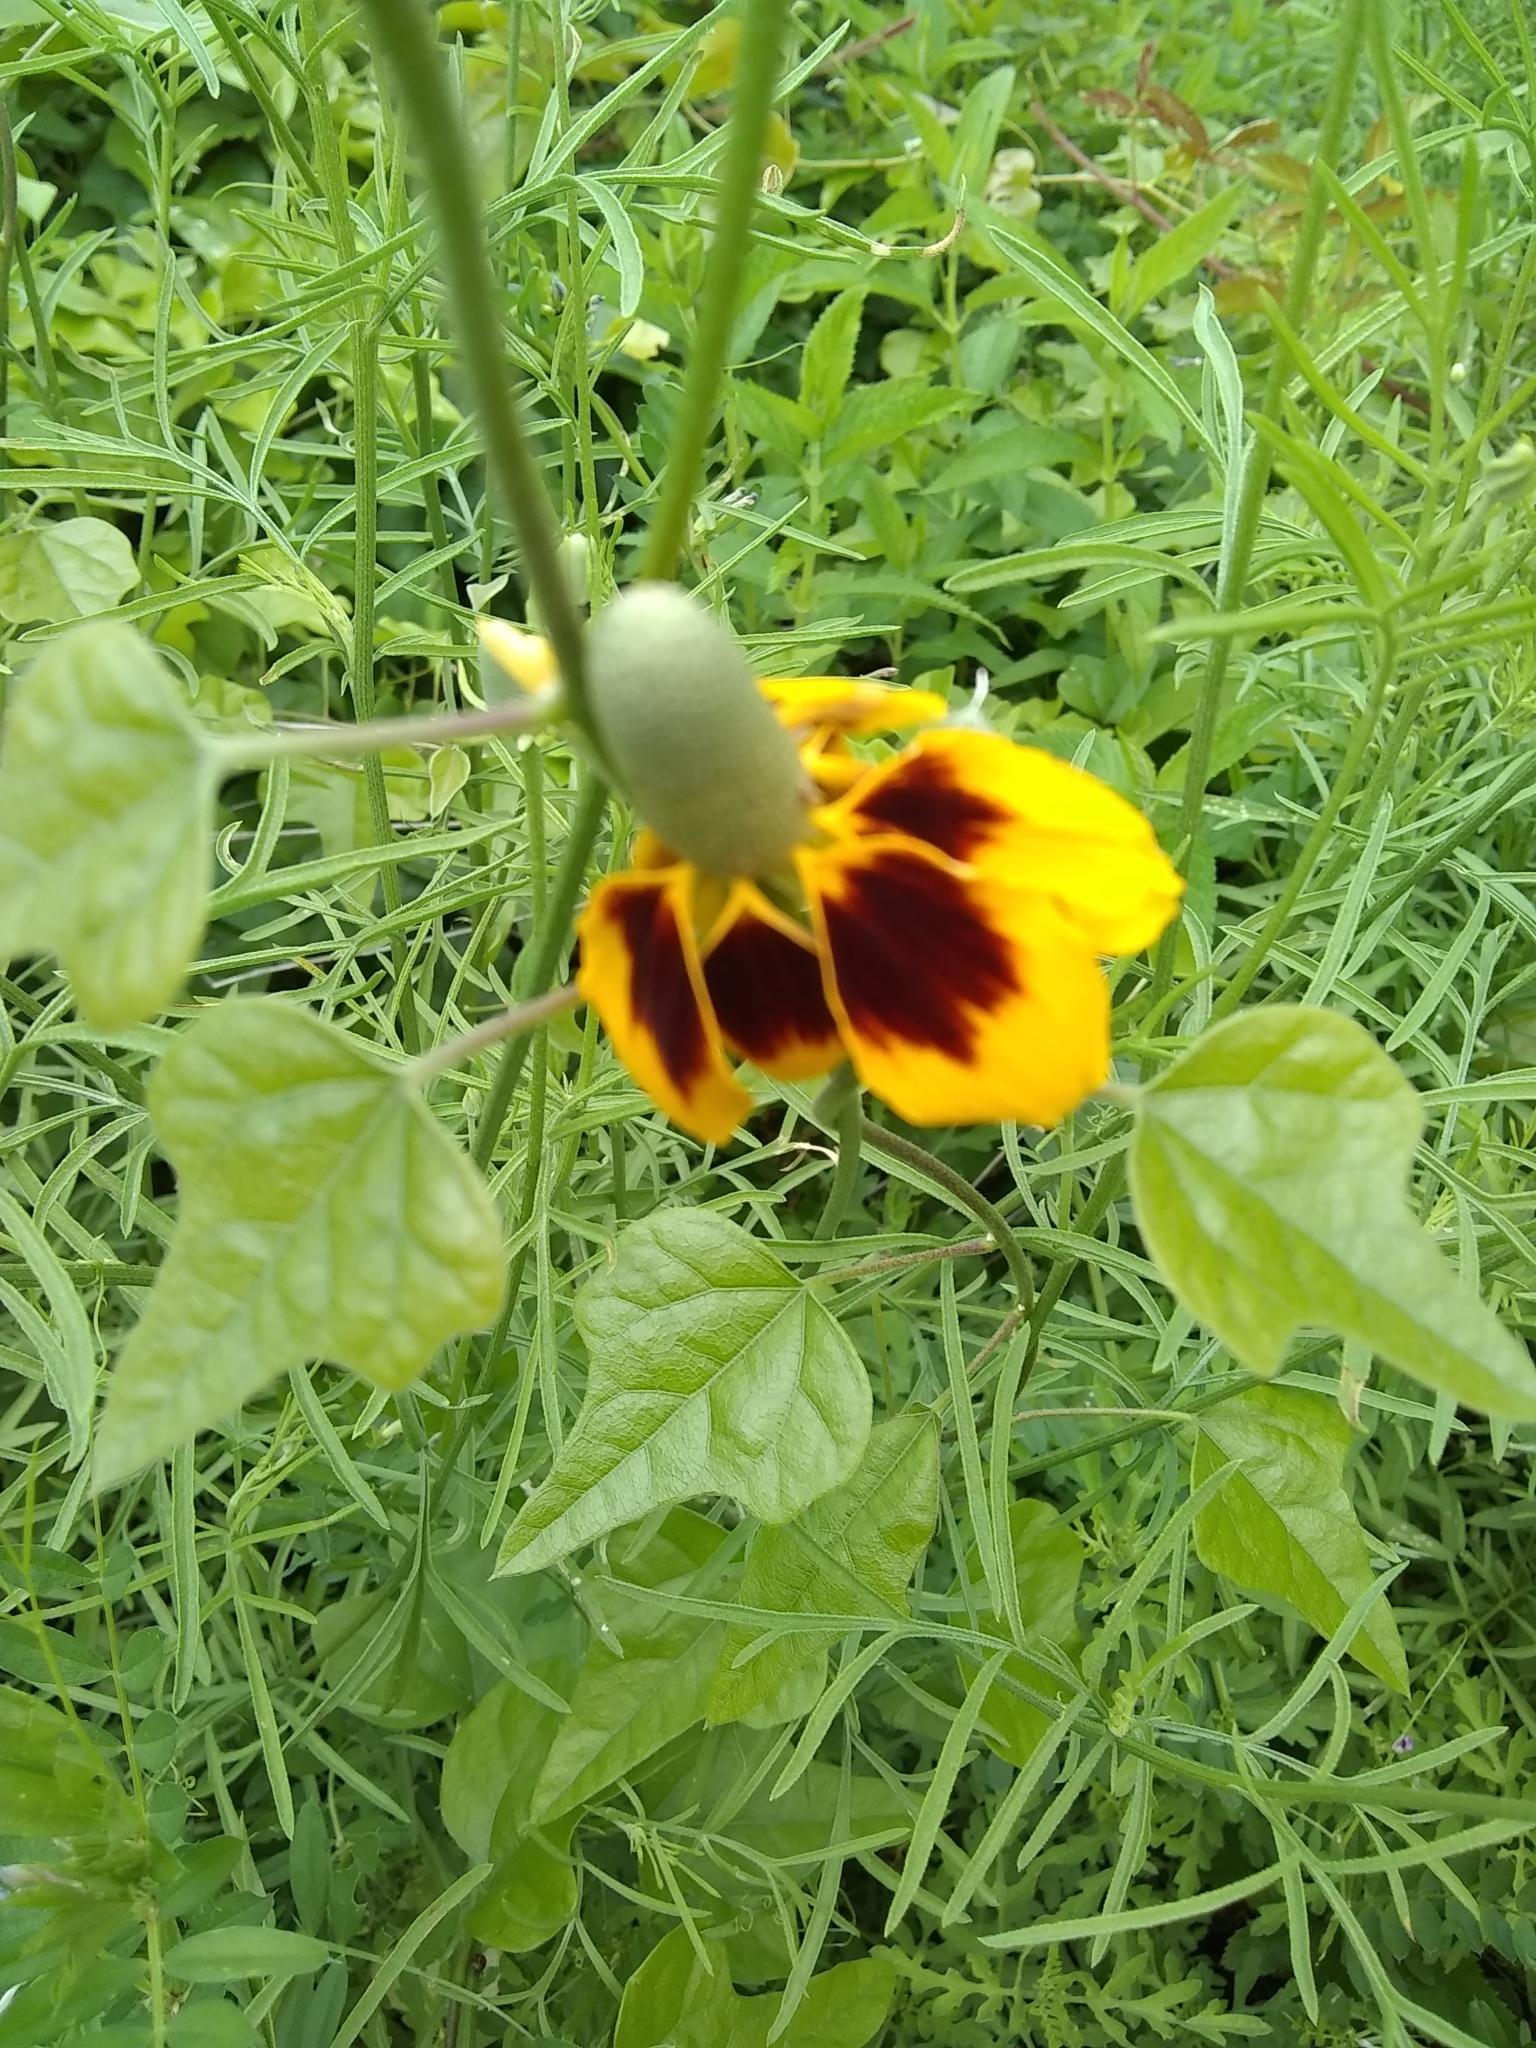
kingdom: Plantae
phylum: Tracheophyta
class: Magnoliopsida
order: Asterales
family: Asteraceae
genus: Ratibida
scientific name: Ratibida columnifera
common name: Prairie coneflower
